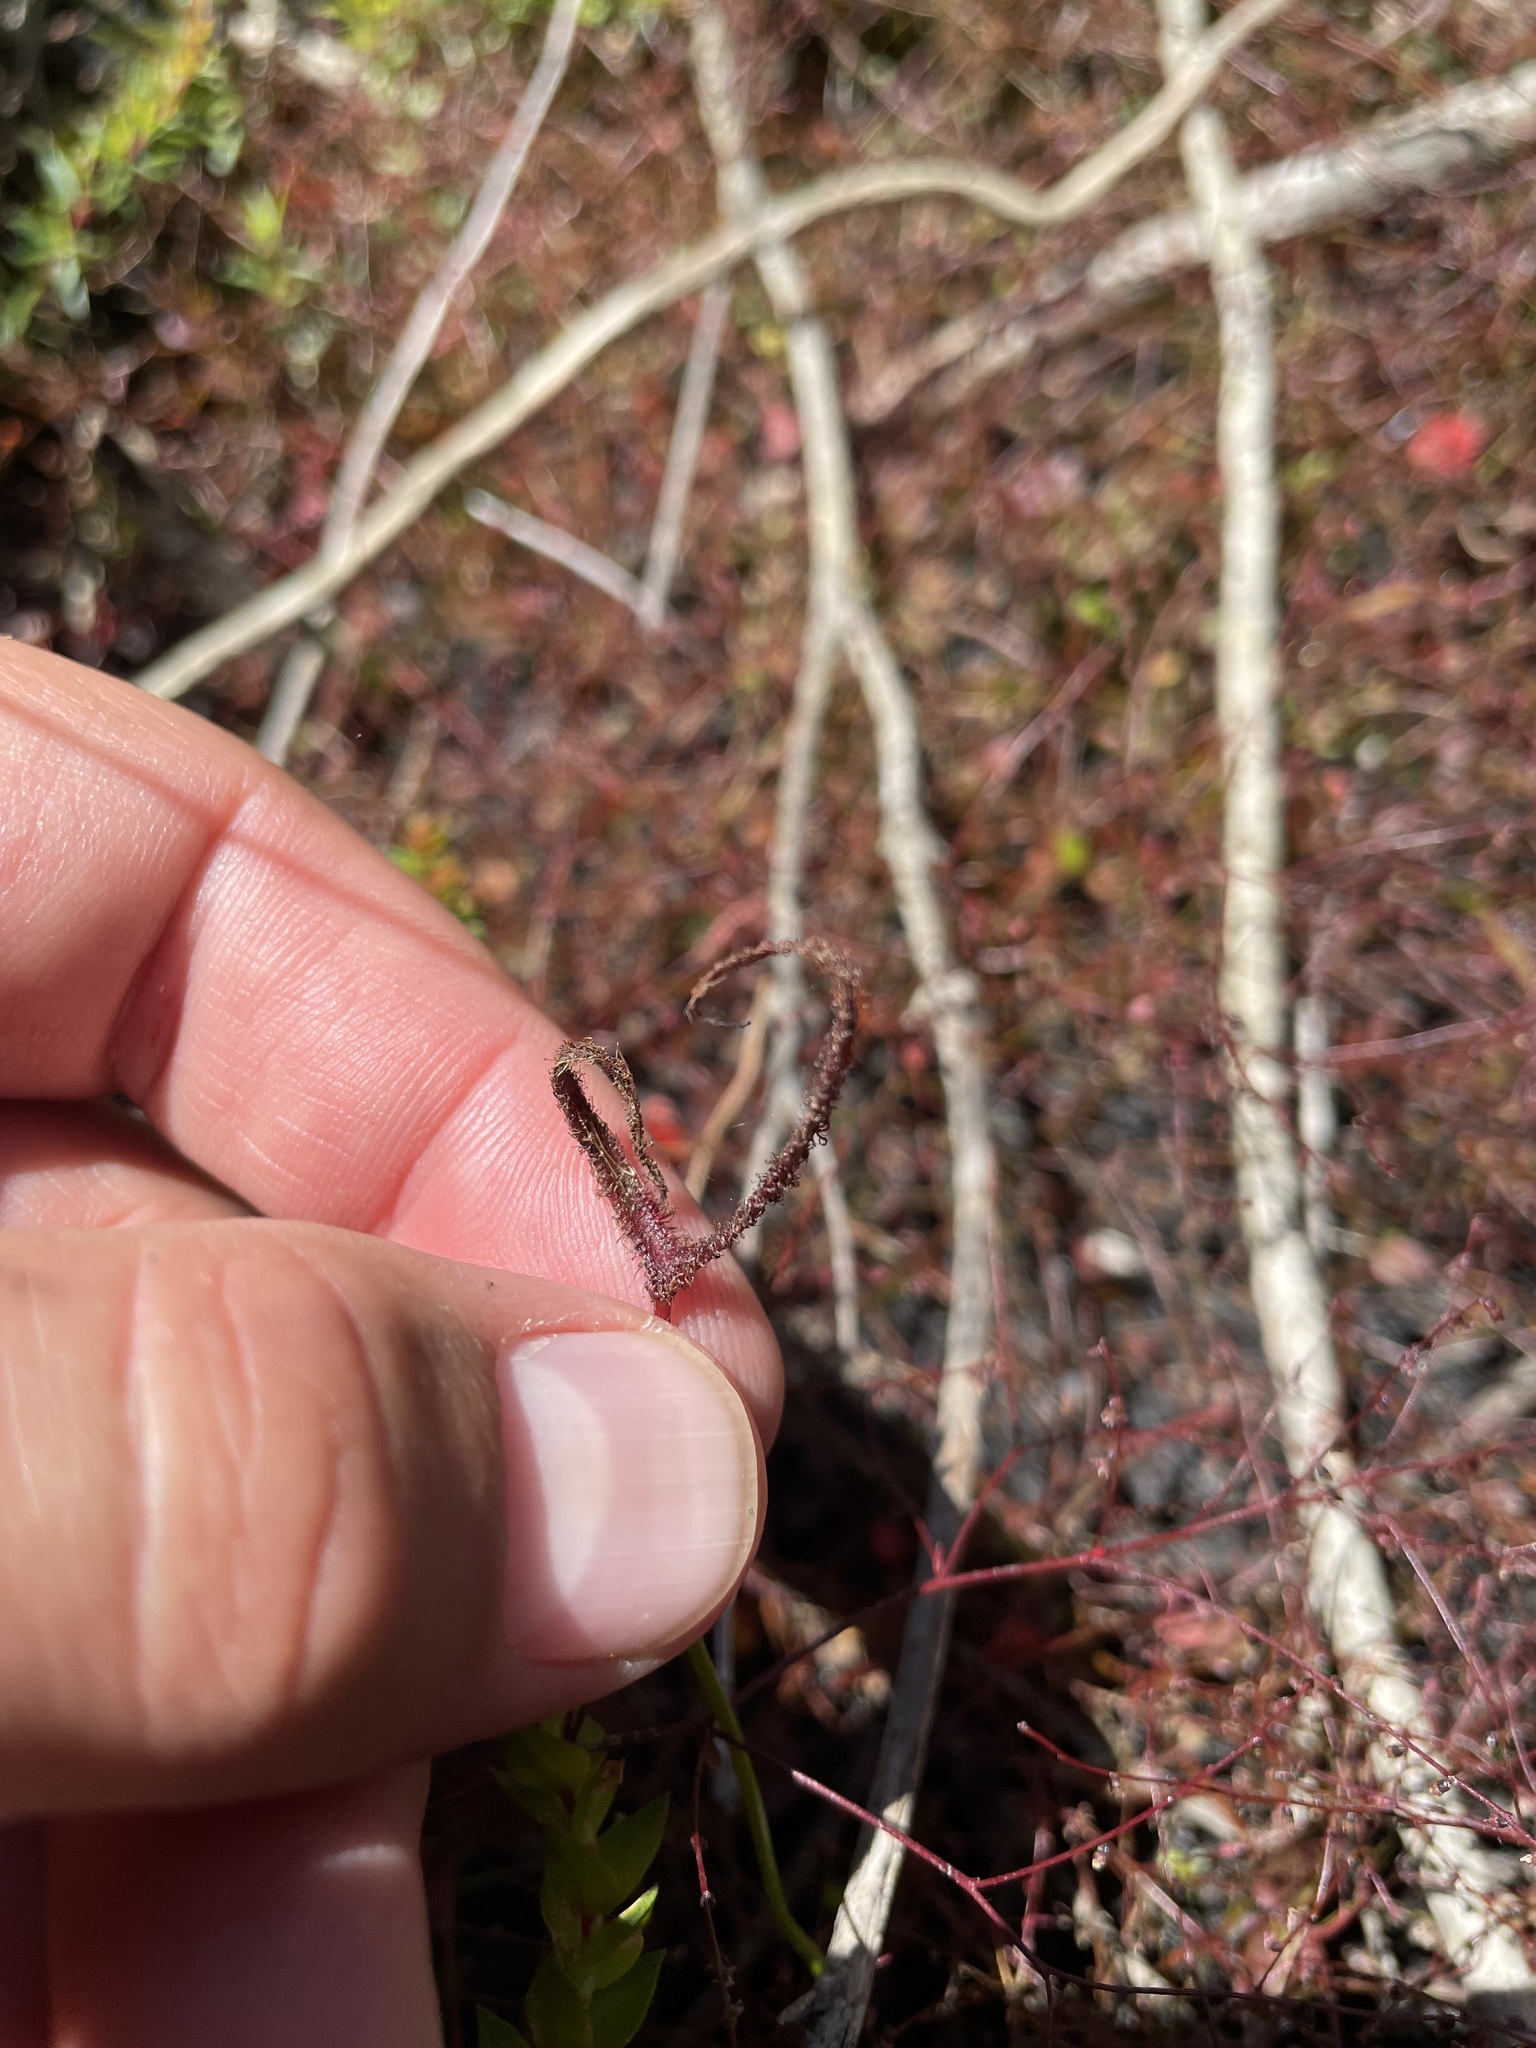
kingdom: Plantae
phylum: Tracheophyta
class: Magnoliopsida
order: Caryophyllales
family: Droseraceae
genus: Drosera
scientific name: Drosera binata
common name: Forked sundew
